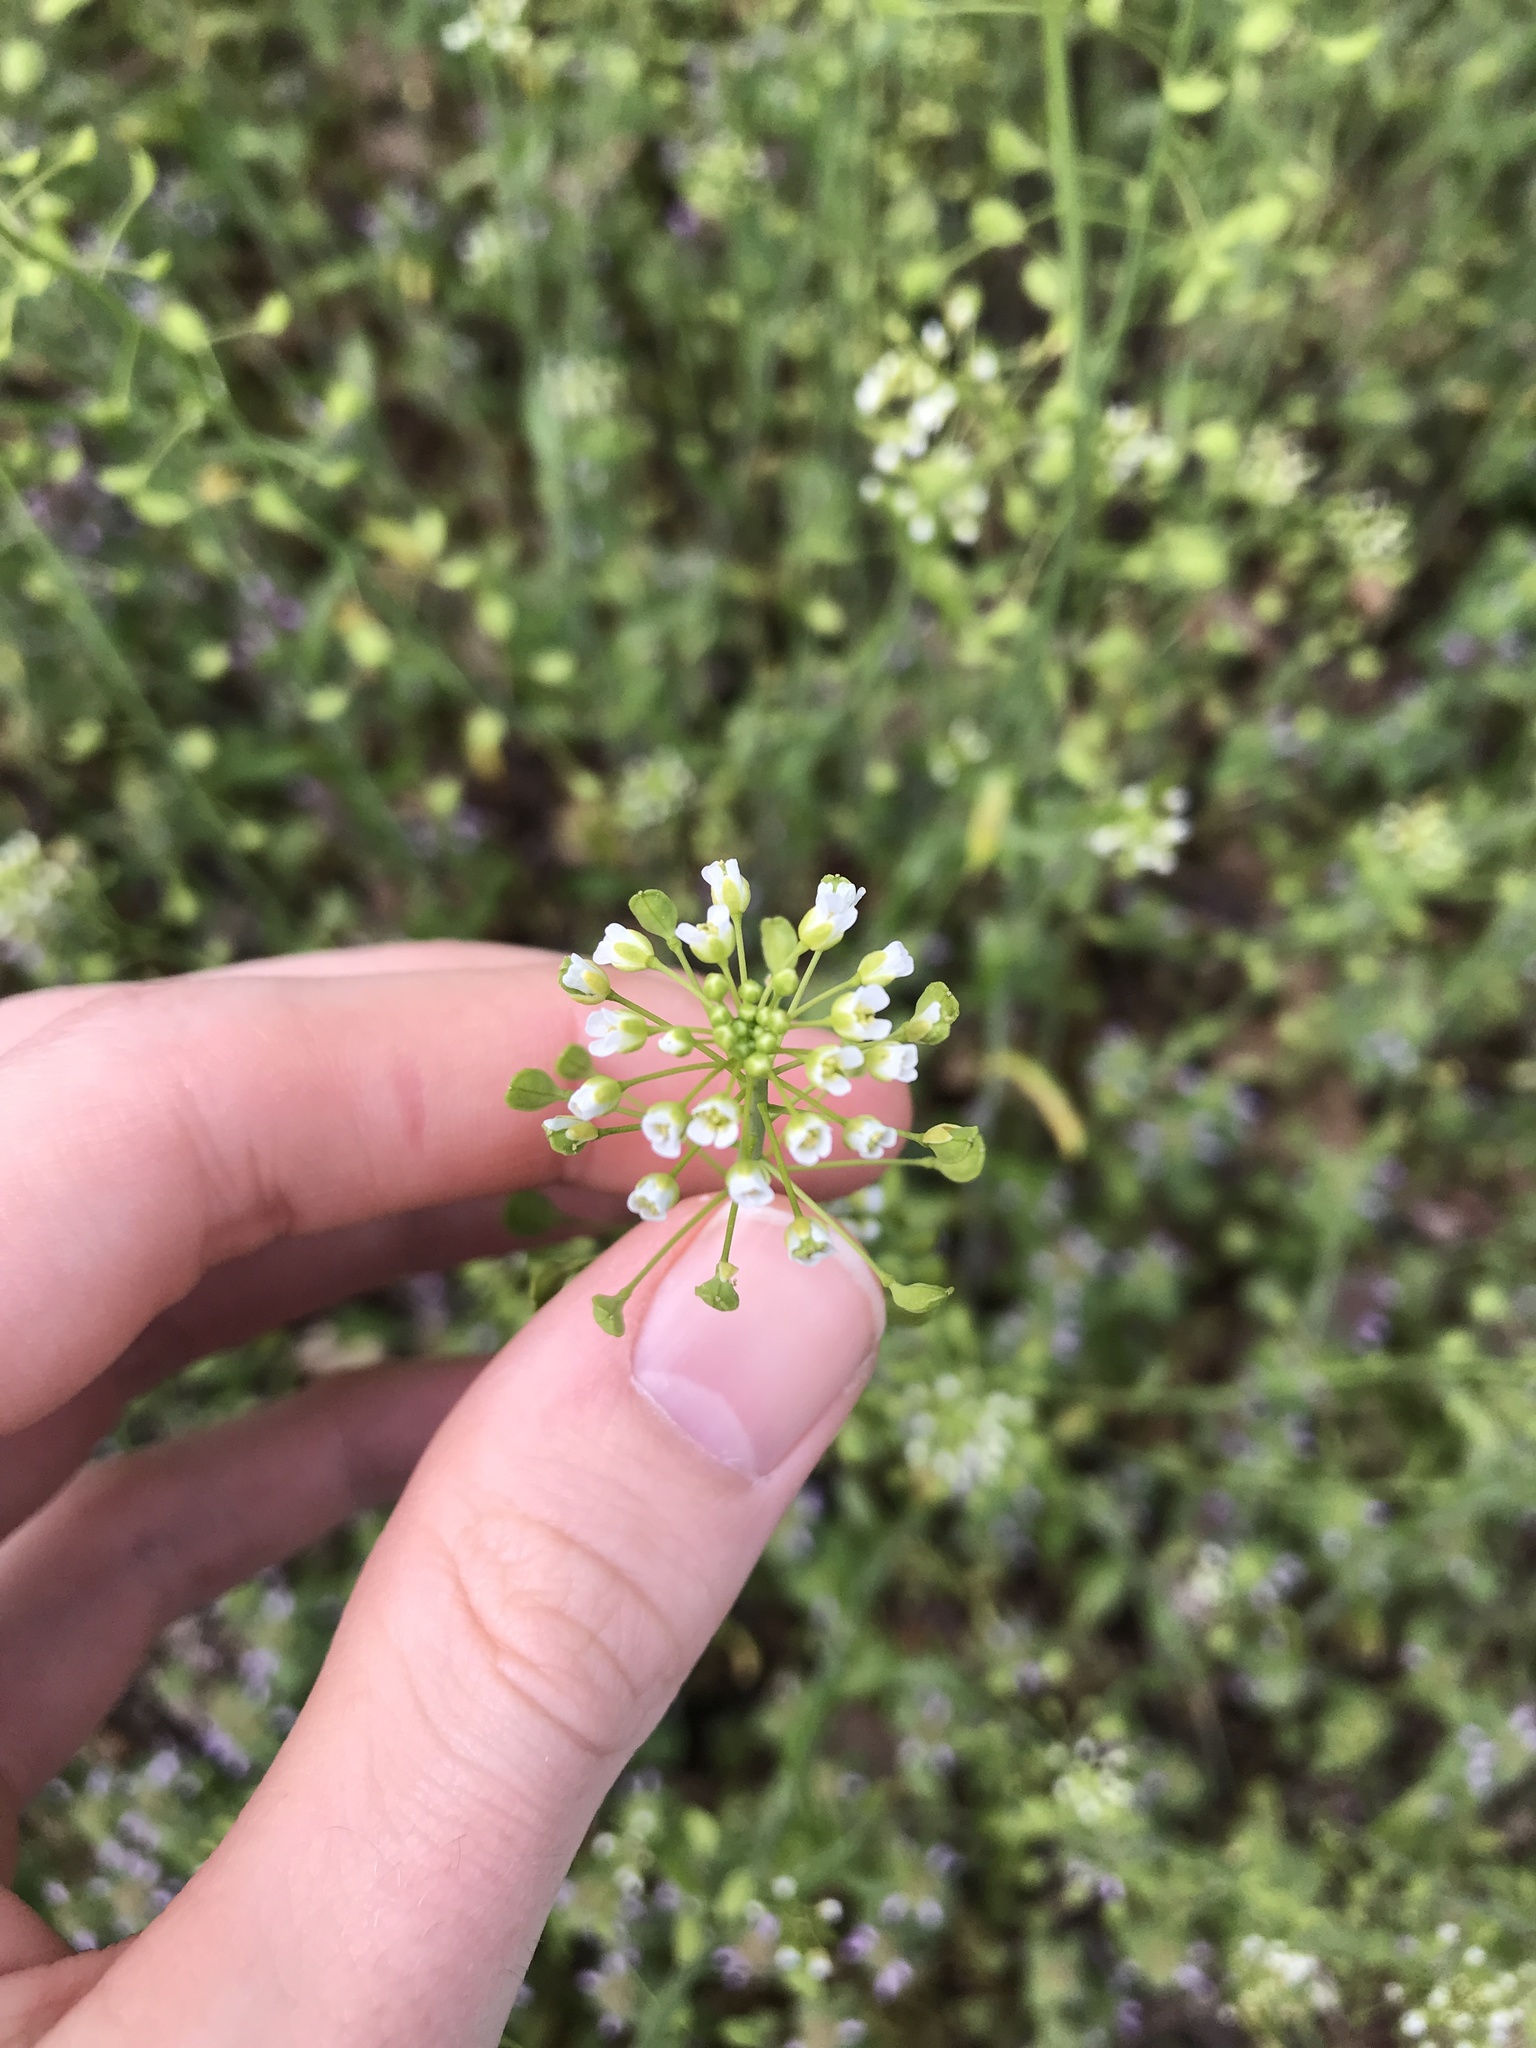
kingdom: Plantae
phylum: Tracheophyta
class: Magnoliopsida
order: Brassicales
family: Brassicaceae
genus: Mummenhoffia
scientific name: Mummenhoffia alliacea
